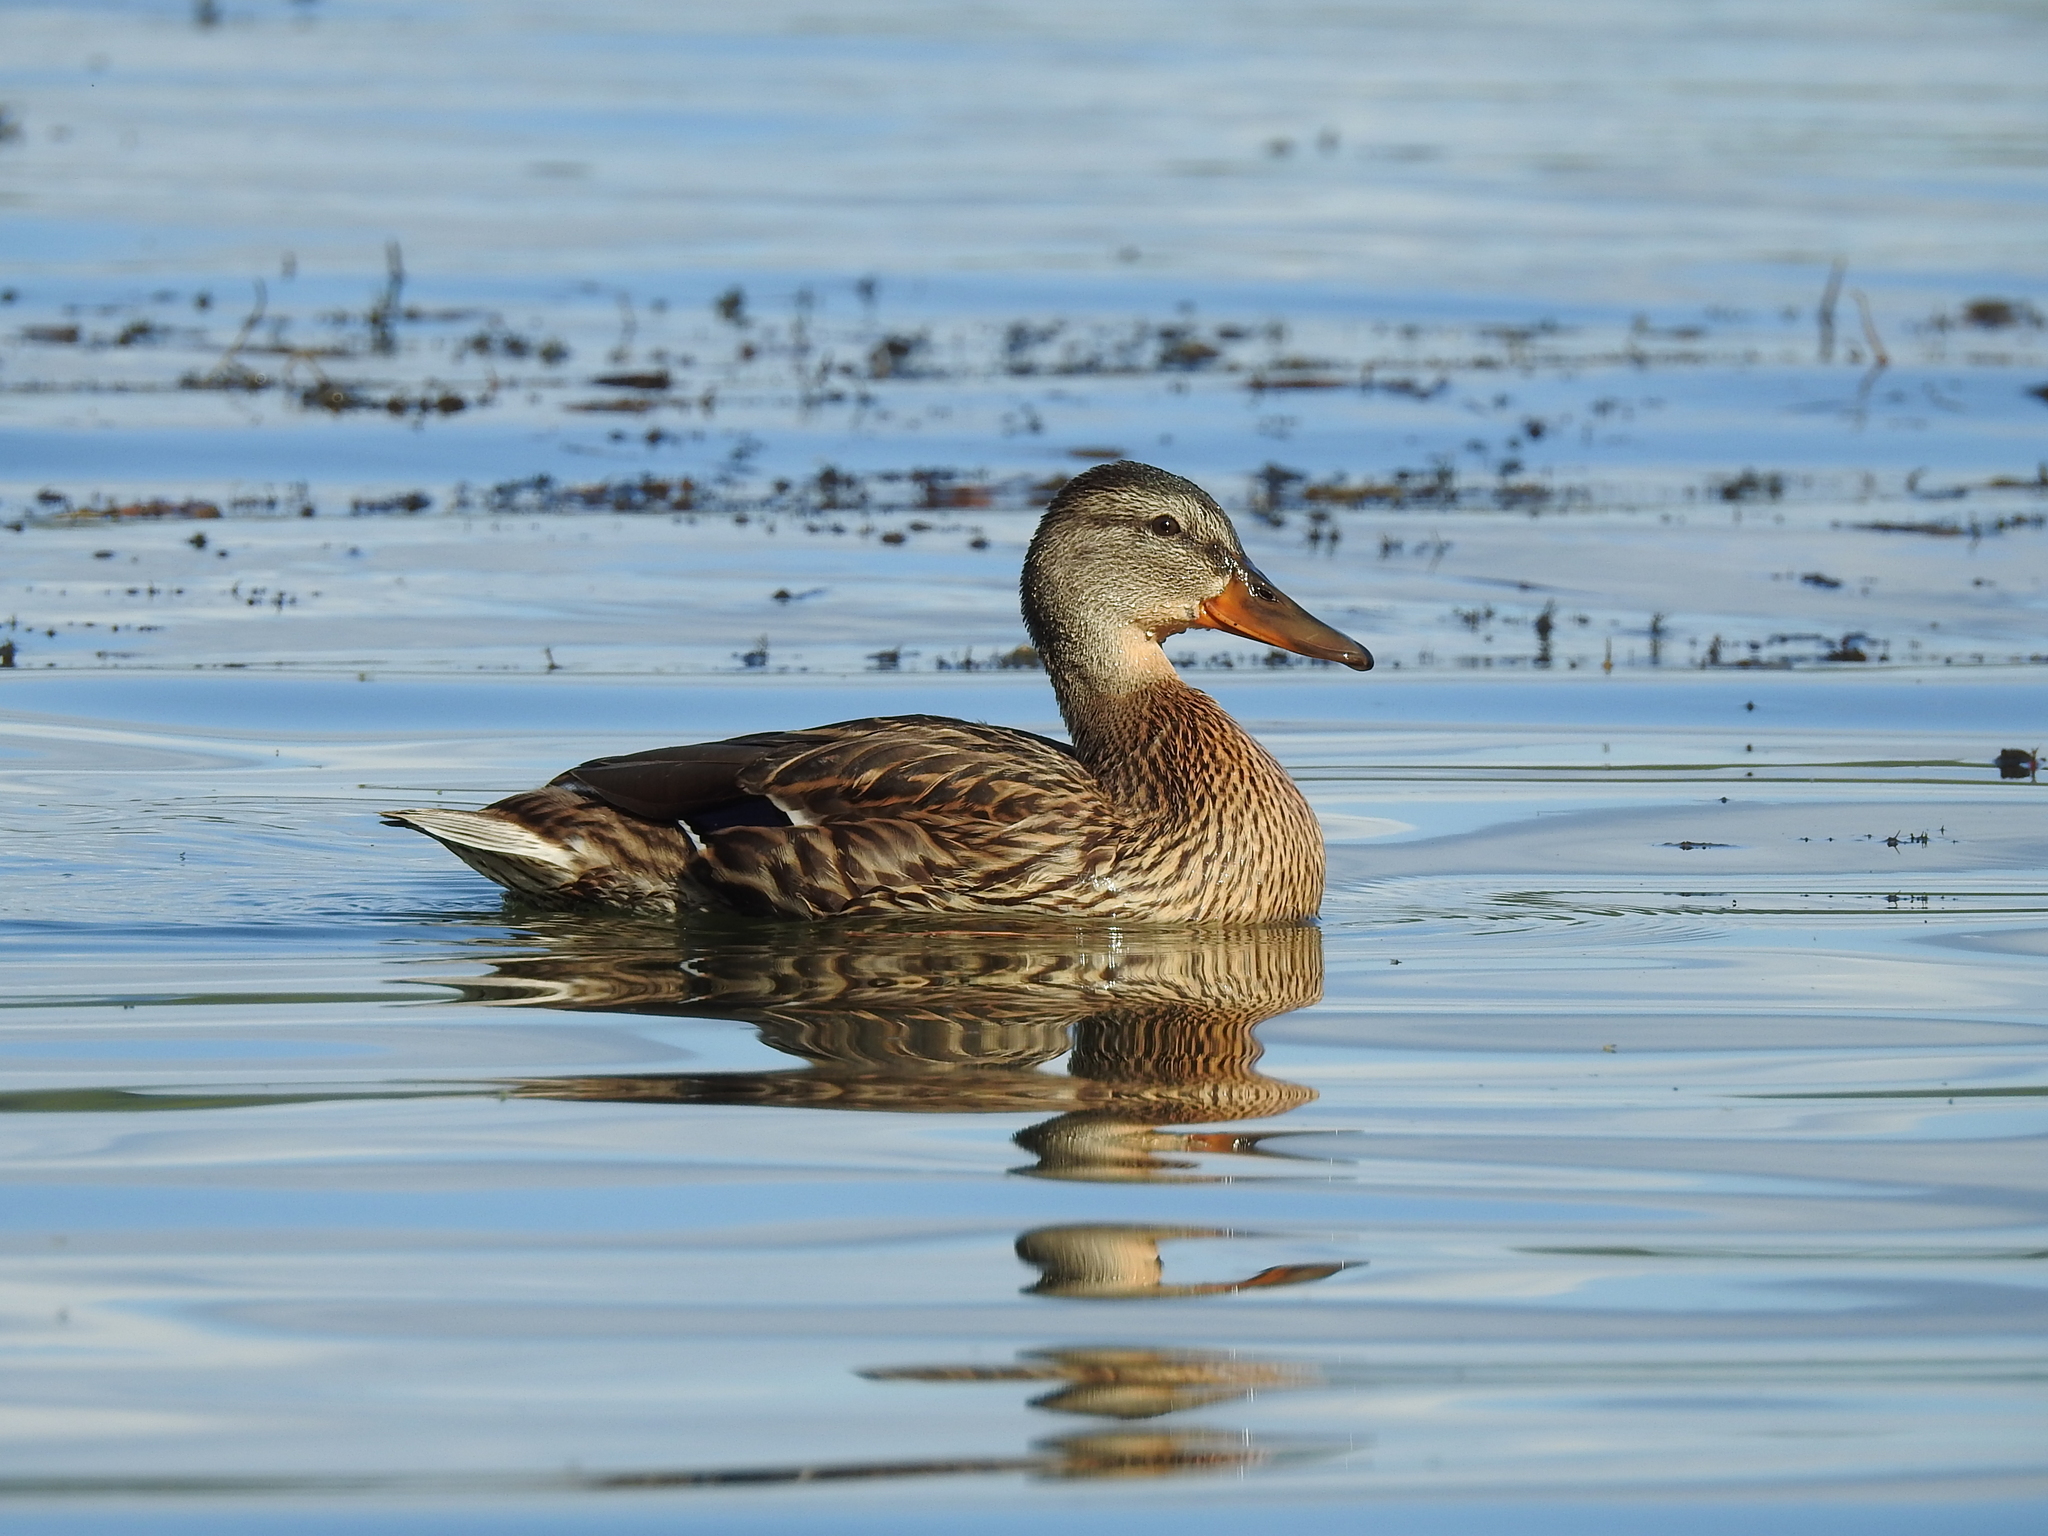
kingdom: Animalia
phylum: Chordata
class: Aves
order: Anseriformes
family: Anatidae
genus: Anas
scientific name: Anas platyrhynchos
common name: Mallard
